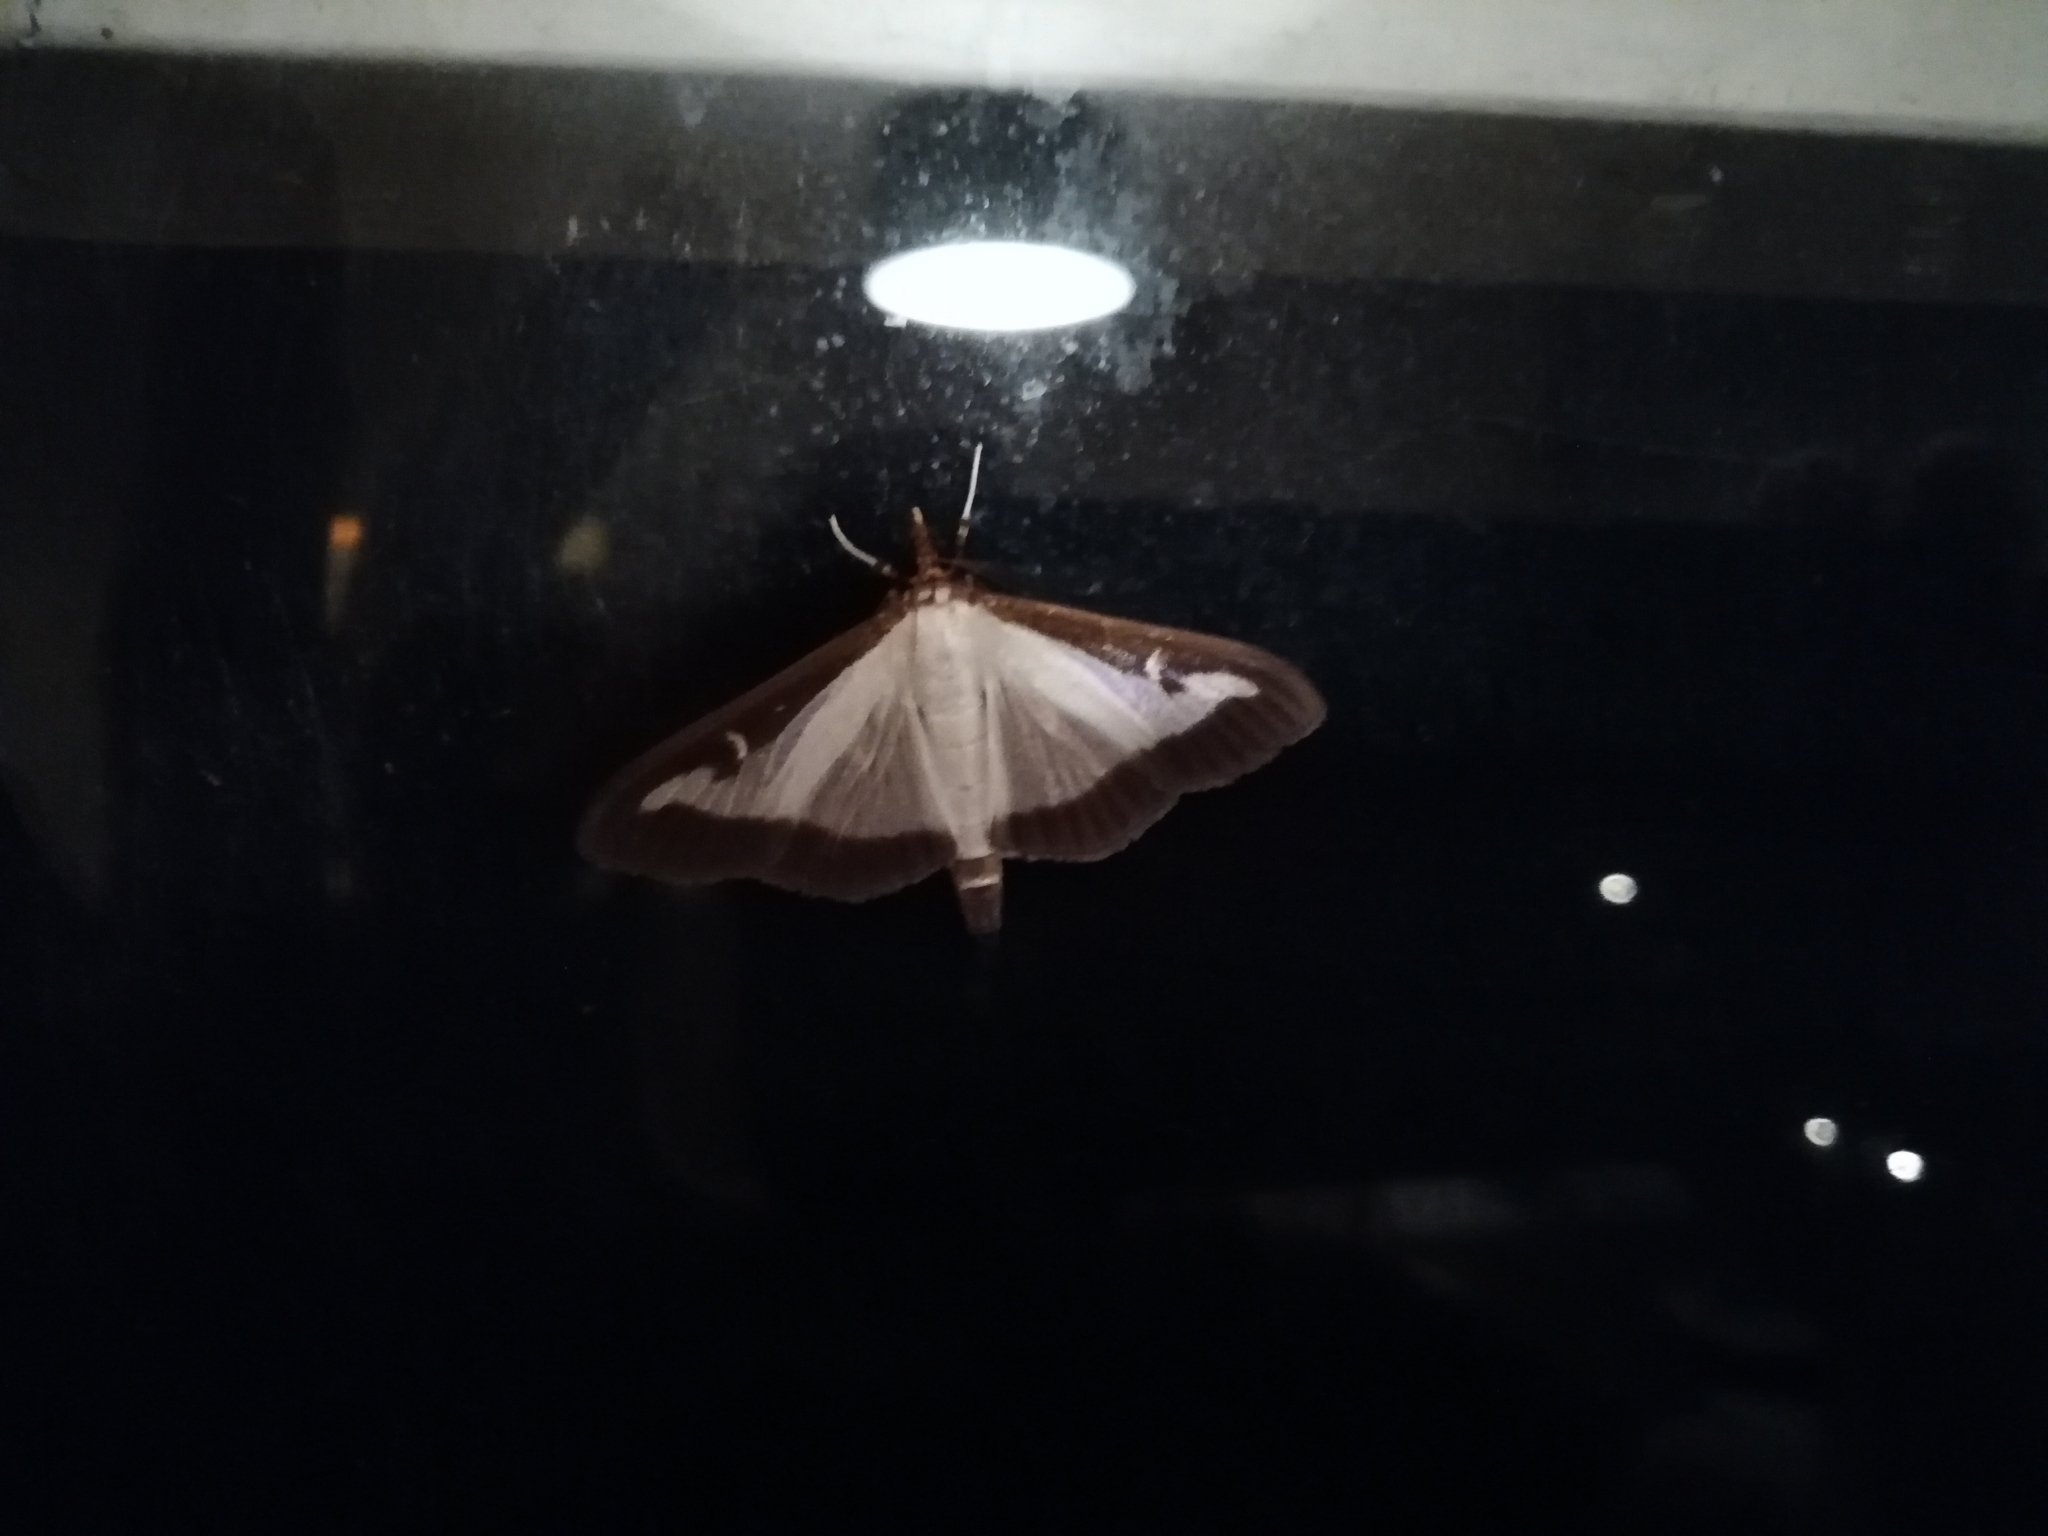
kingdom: Animalia
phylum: Arthropoda
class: Insecta
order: Lepidoptera
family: Crambidae
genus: Cydalima
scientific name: Cydalima perspectalis
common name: Box tree moth
